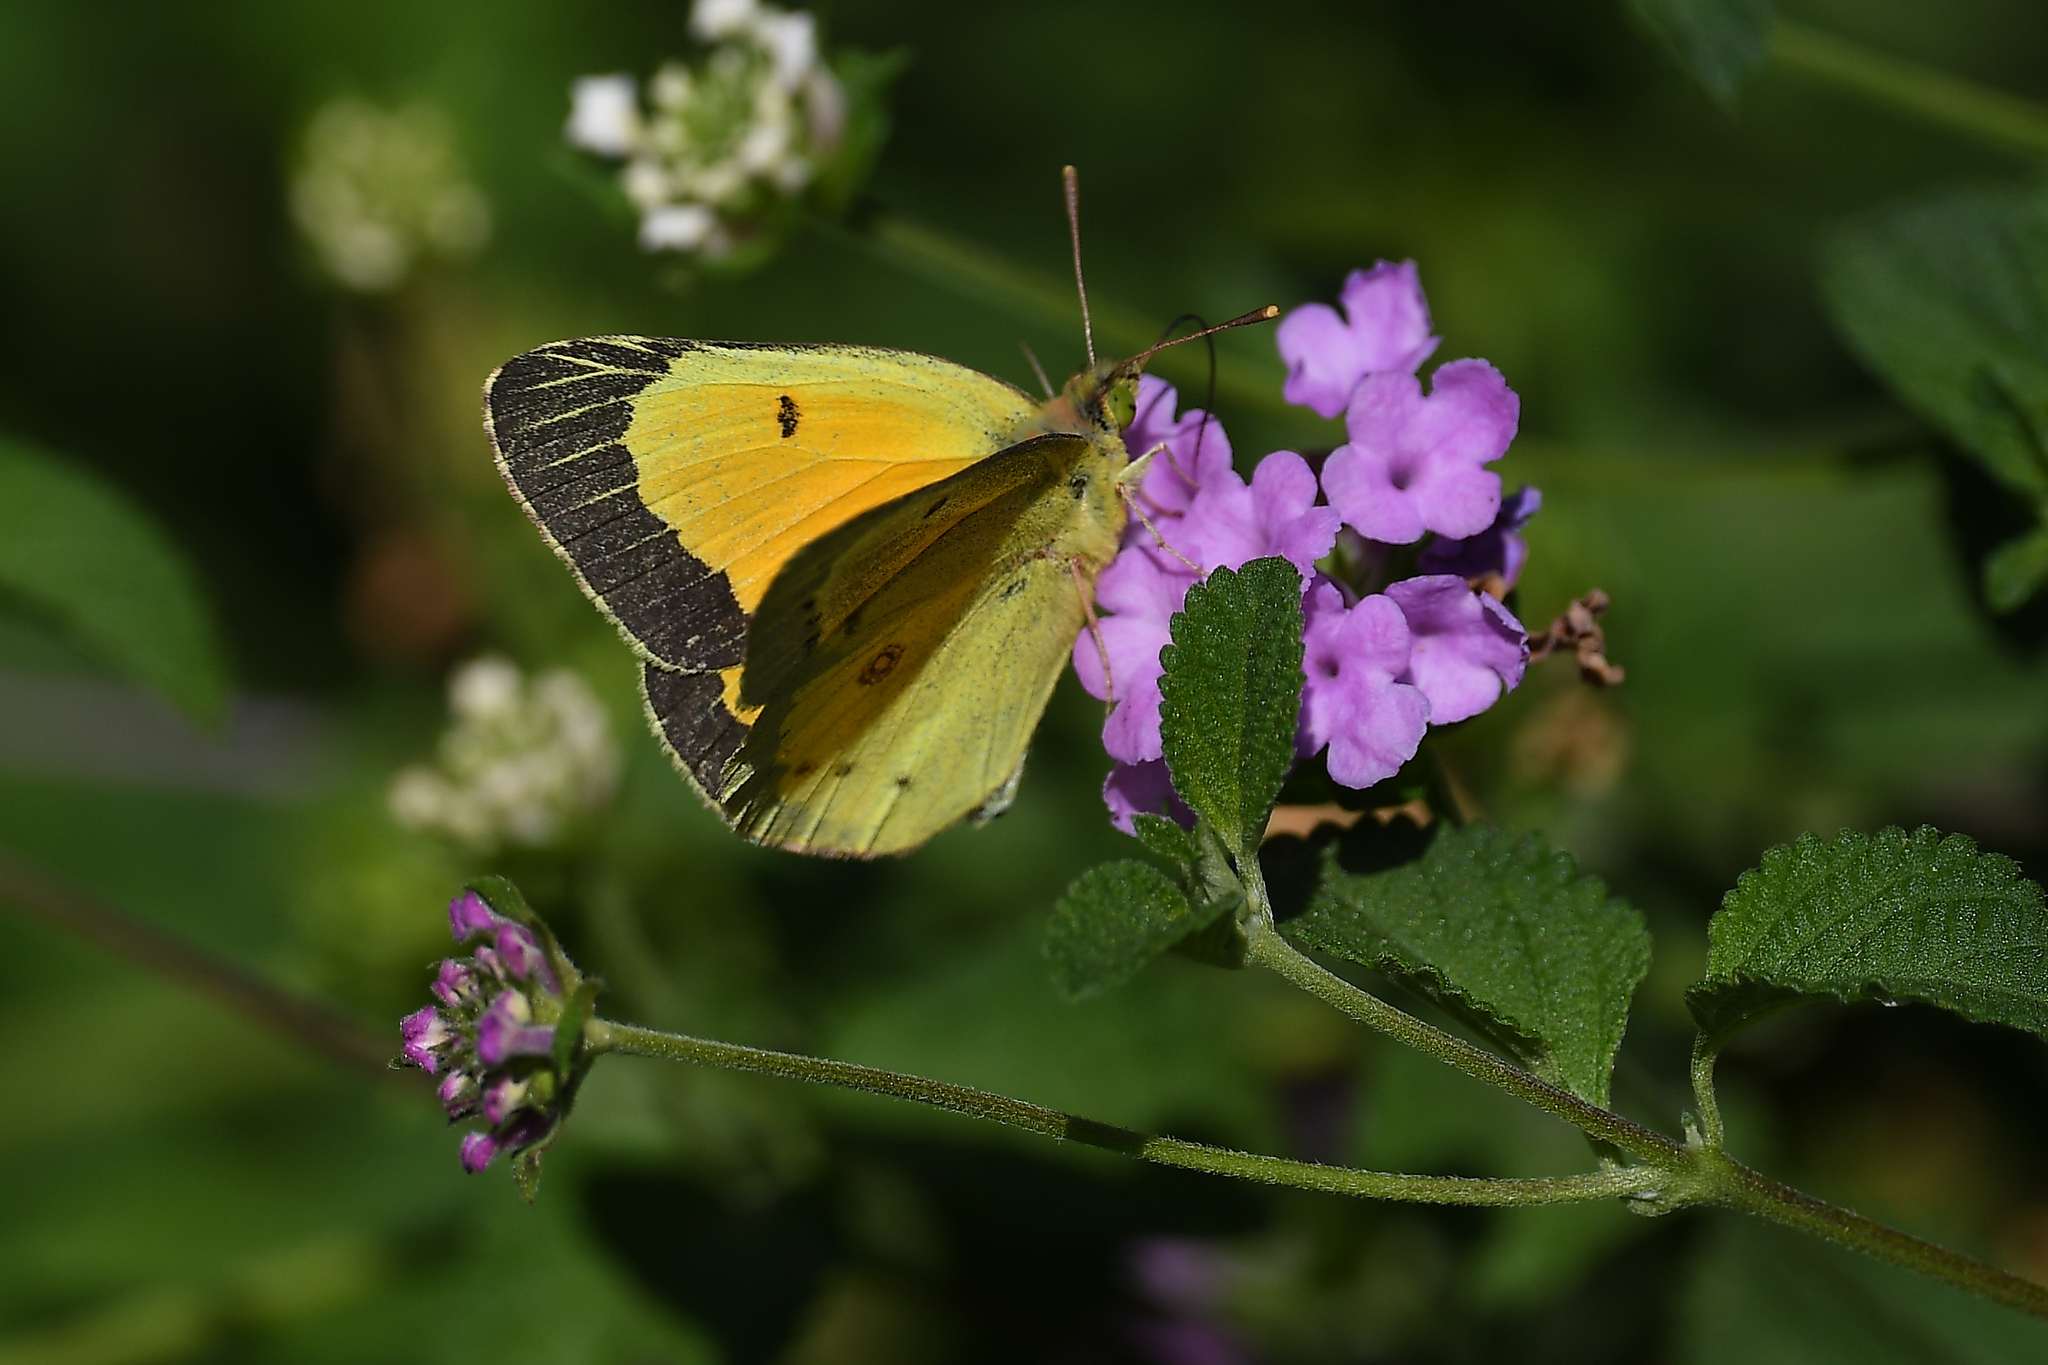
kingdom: Animalia
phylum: Arthropoda
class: Insecta
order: Lepidoptera
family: Pieridae
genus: Colias
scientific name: Colias eurytheme
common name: Alfalfa butterfly
